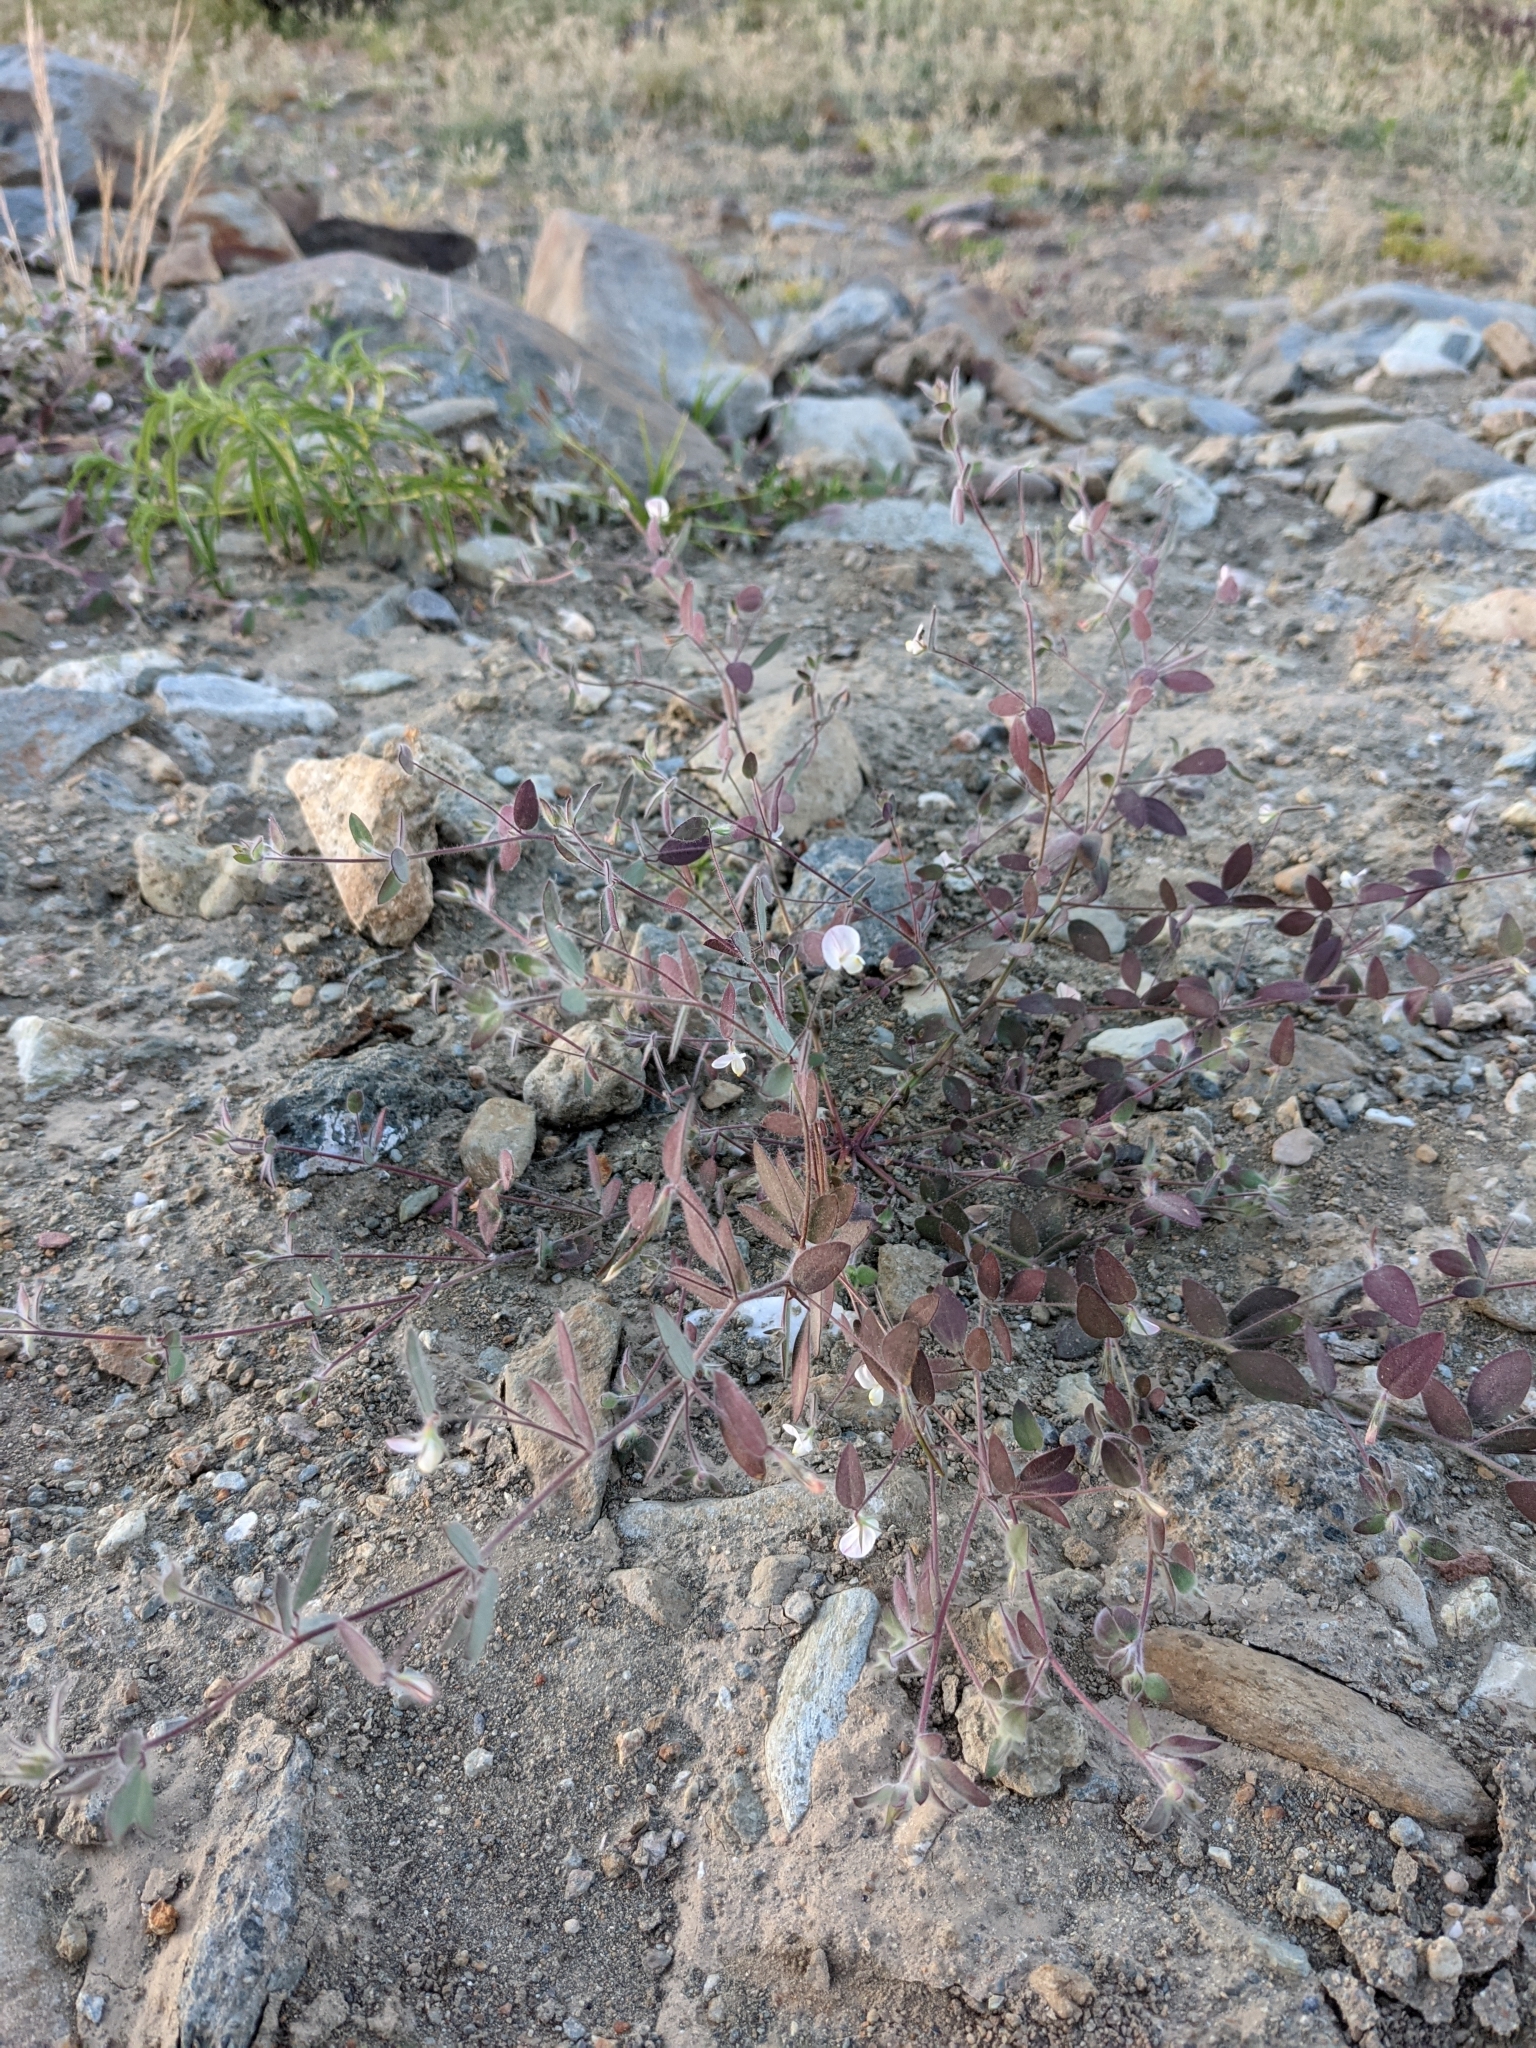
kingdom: Plantae
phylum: Tracheophyta
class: Magnoliopsida
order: Fabales
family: Fabaceae
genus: Acmispon
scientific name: Acmispon americanus
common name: American bird's-foot trefoil
